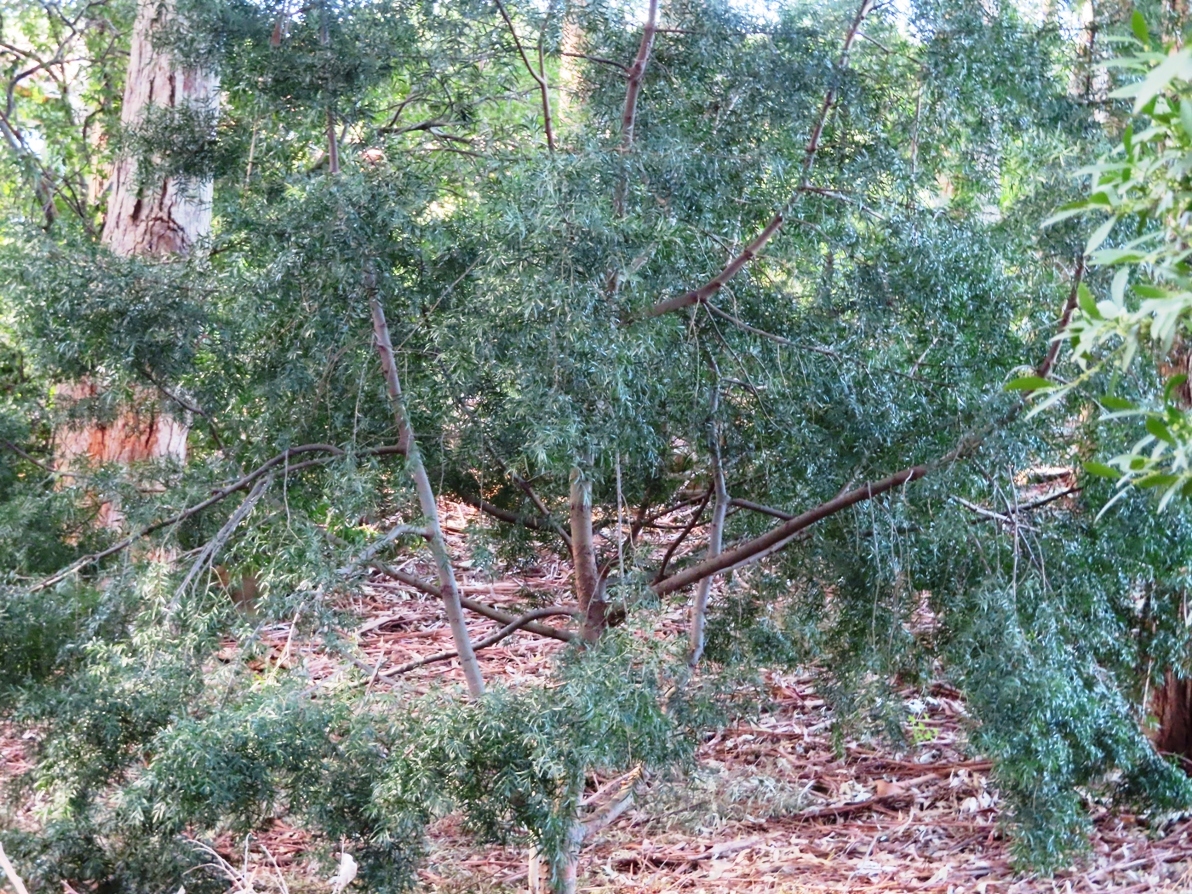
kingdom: Plantae
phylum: Tracheophyta
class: Pinopsida
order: Pinales
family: Podocarpaceae
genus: Afrocarpus
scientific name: Afrocarpus falcatus
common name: Bastard yellowwood
